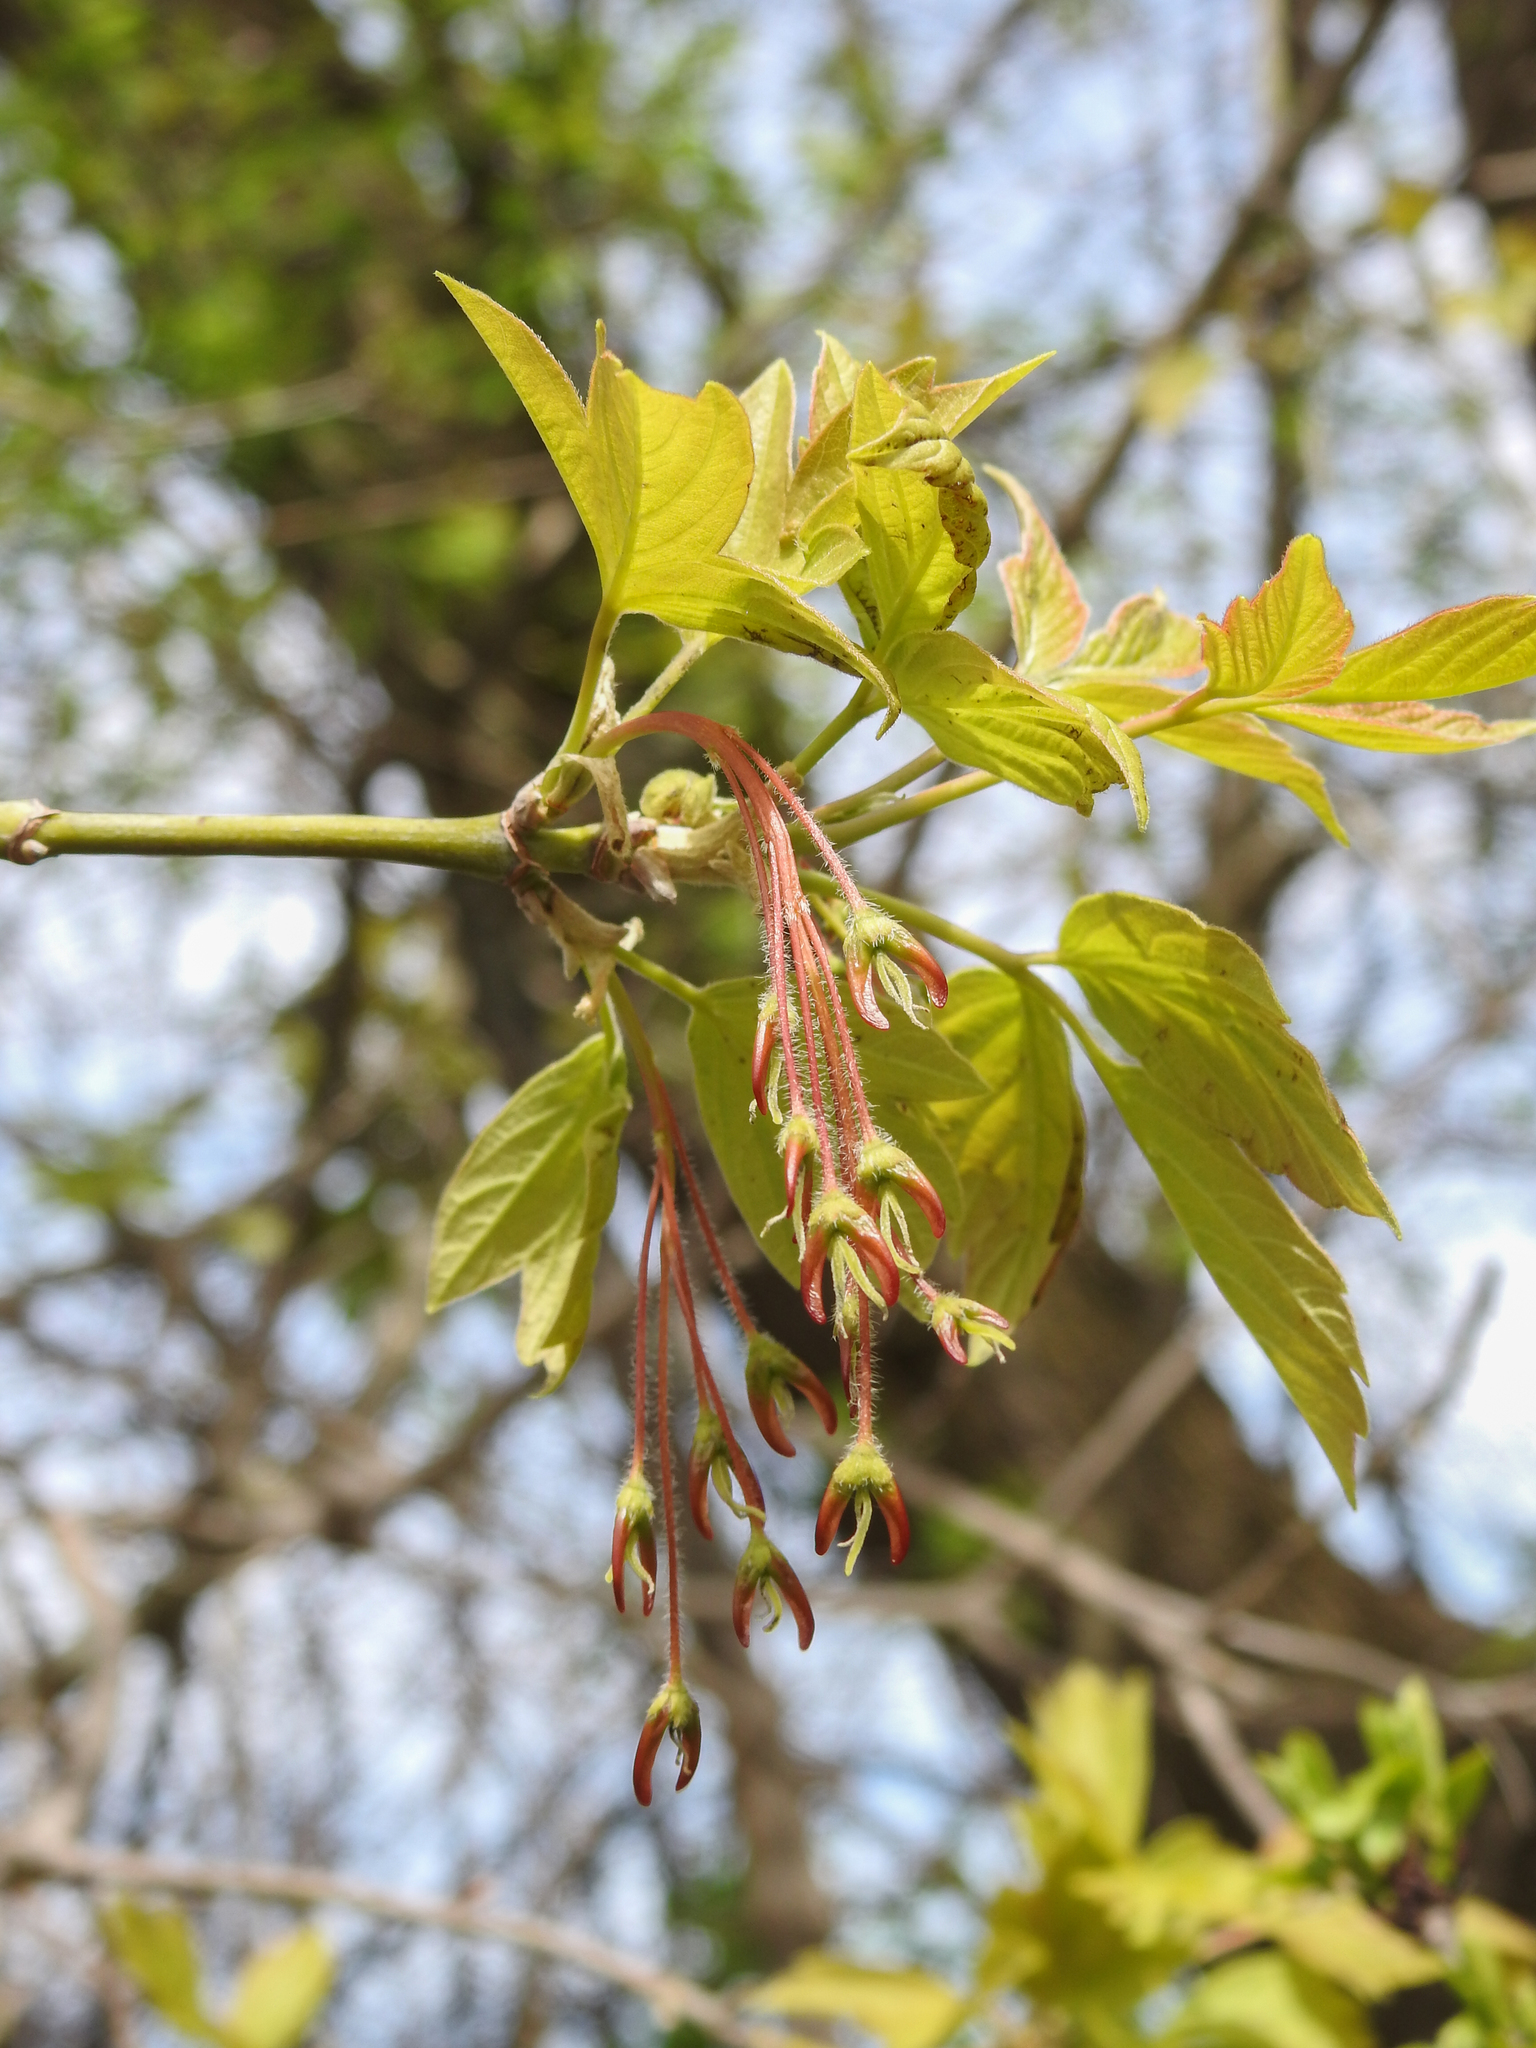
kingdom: Plantae
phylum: Tracheophyta
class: Magnoliopsida
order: Sapindales
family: Sapindaceae
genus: Acer
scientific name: Acer negundo
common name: Ashleaf maple
